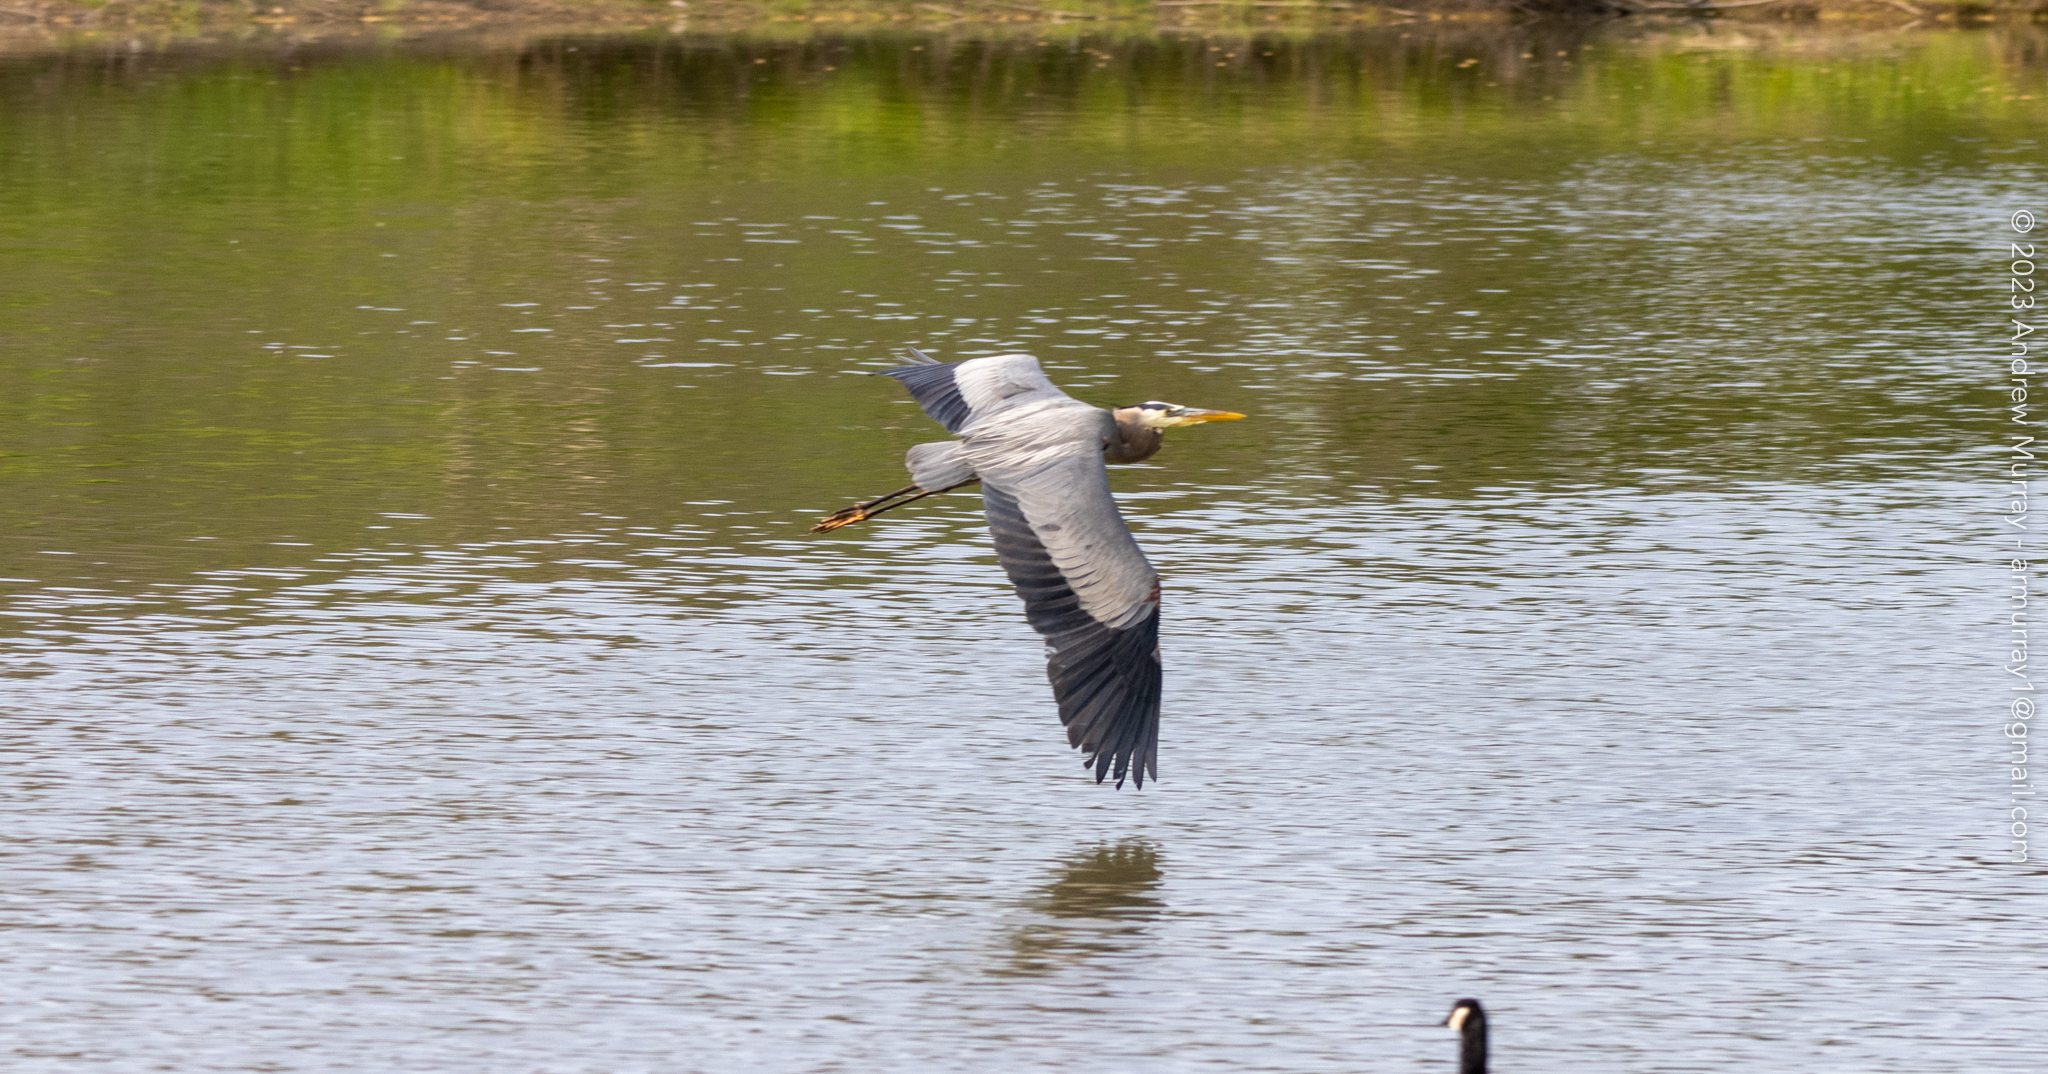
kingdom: Animalia
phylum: Chordata
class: Aves
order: Pelecaniformes
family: Ardeidae
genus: Ardea
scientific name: Ardea herodias
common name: Great blue heron
